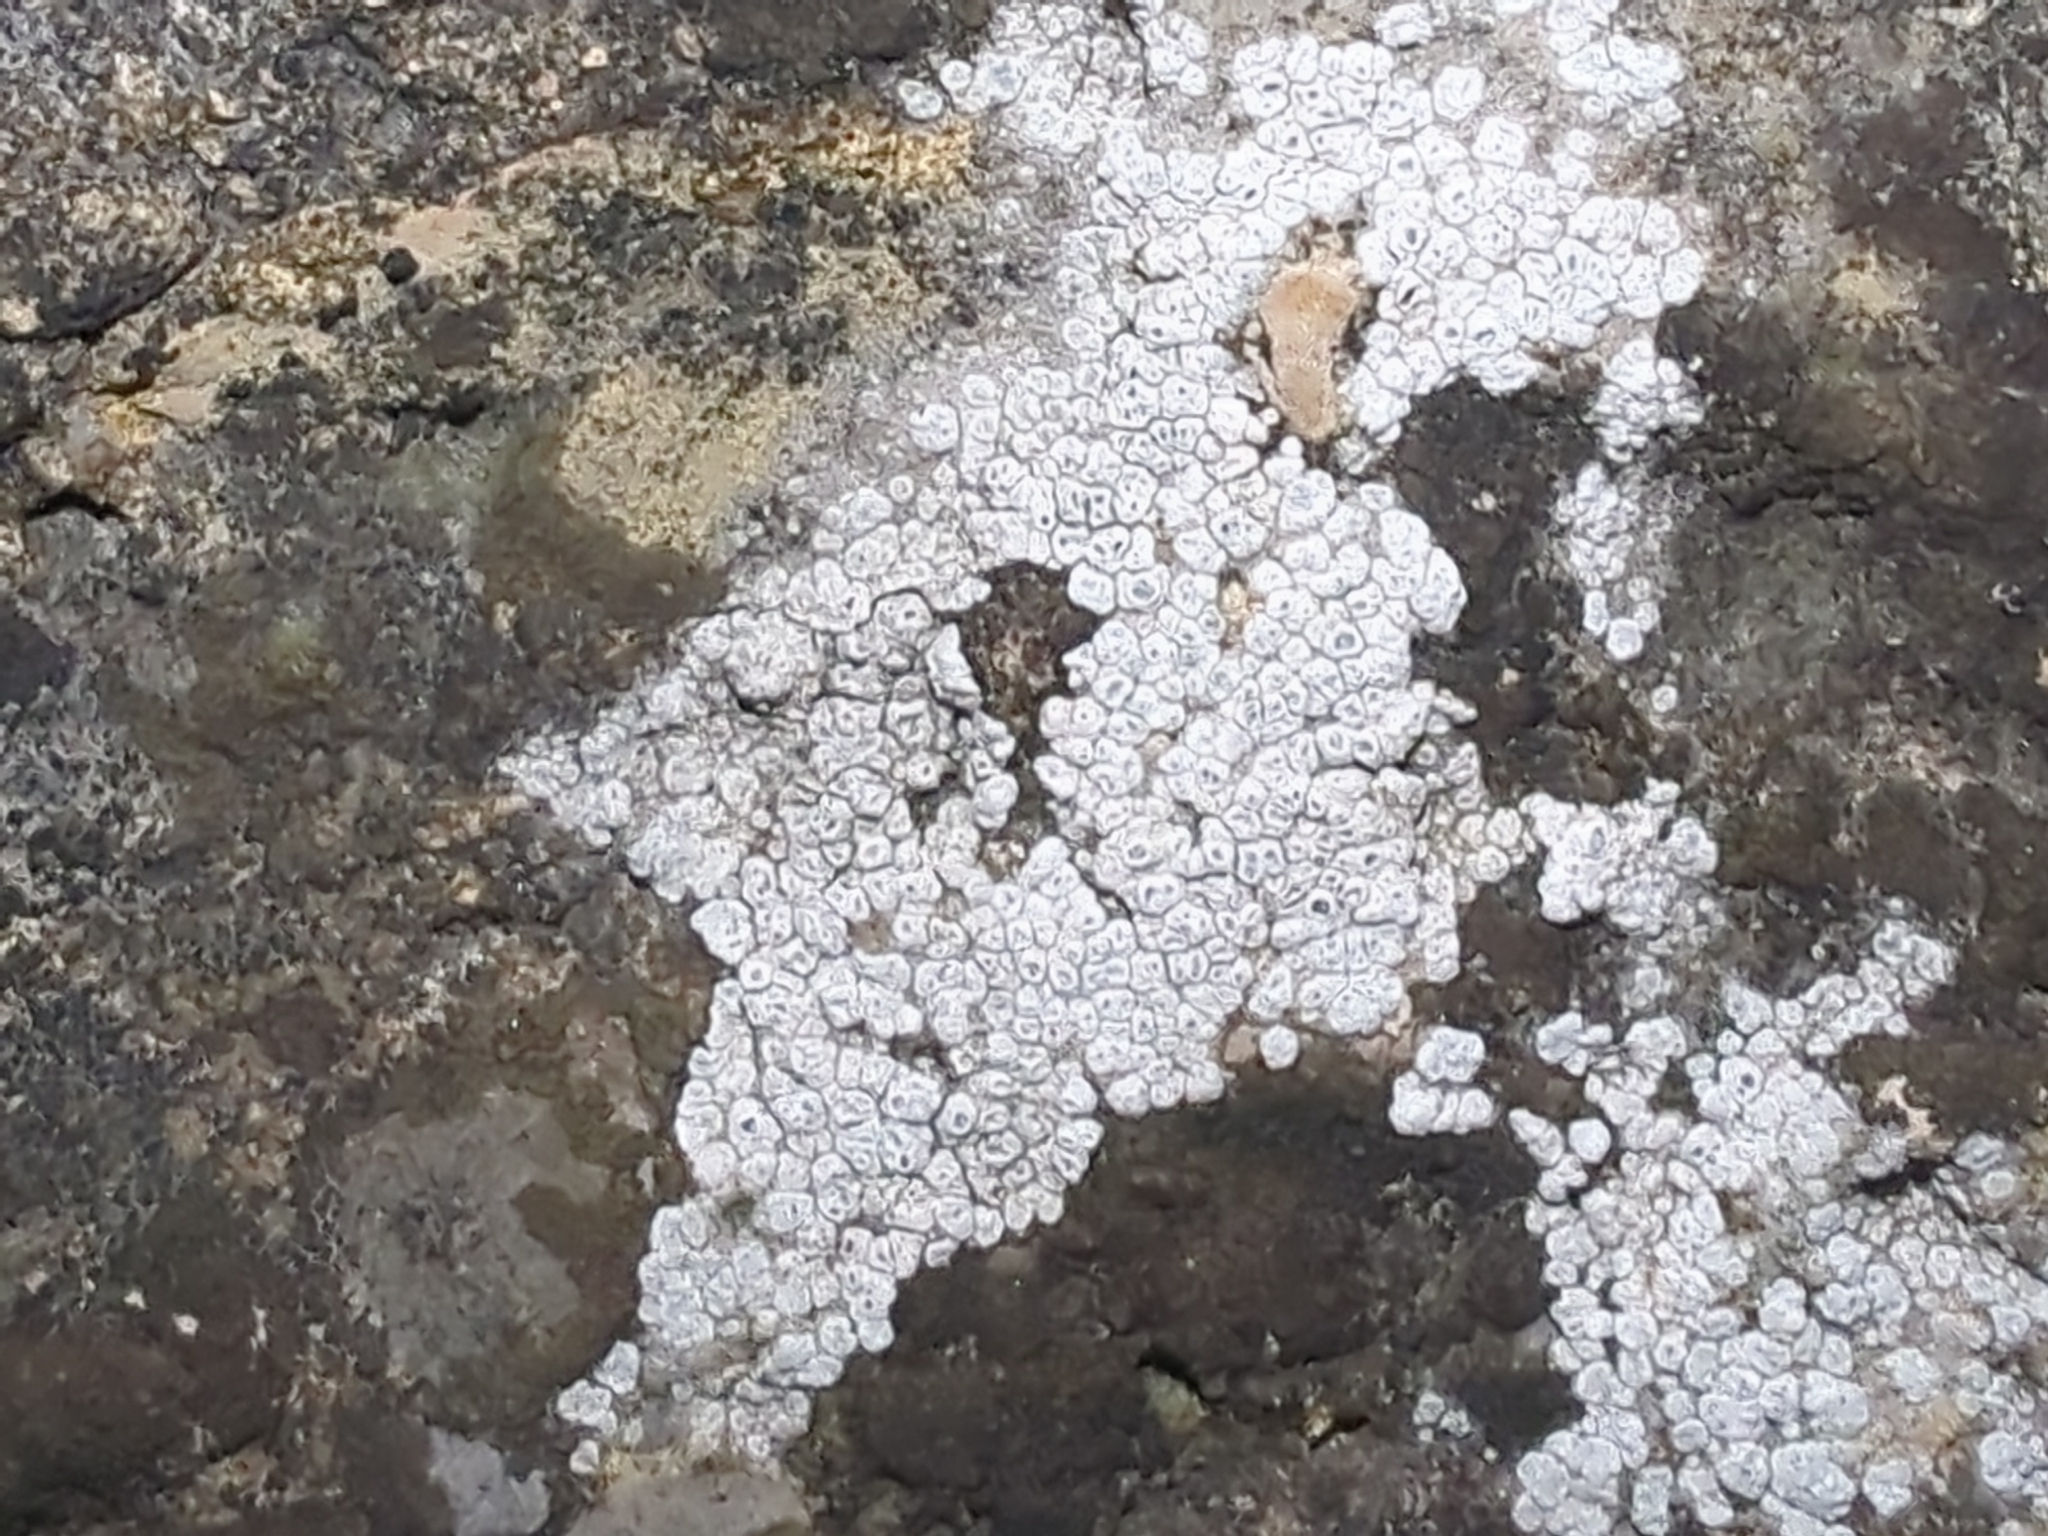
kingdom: Fungi
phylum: Ascomycota
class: Lecanoromycetes
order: Pertusariales
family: Megasporaceae
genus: Circinaria
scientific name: Circinaria contorta
